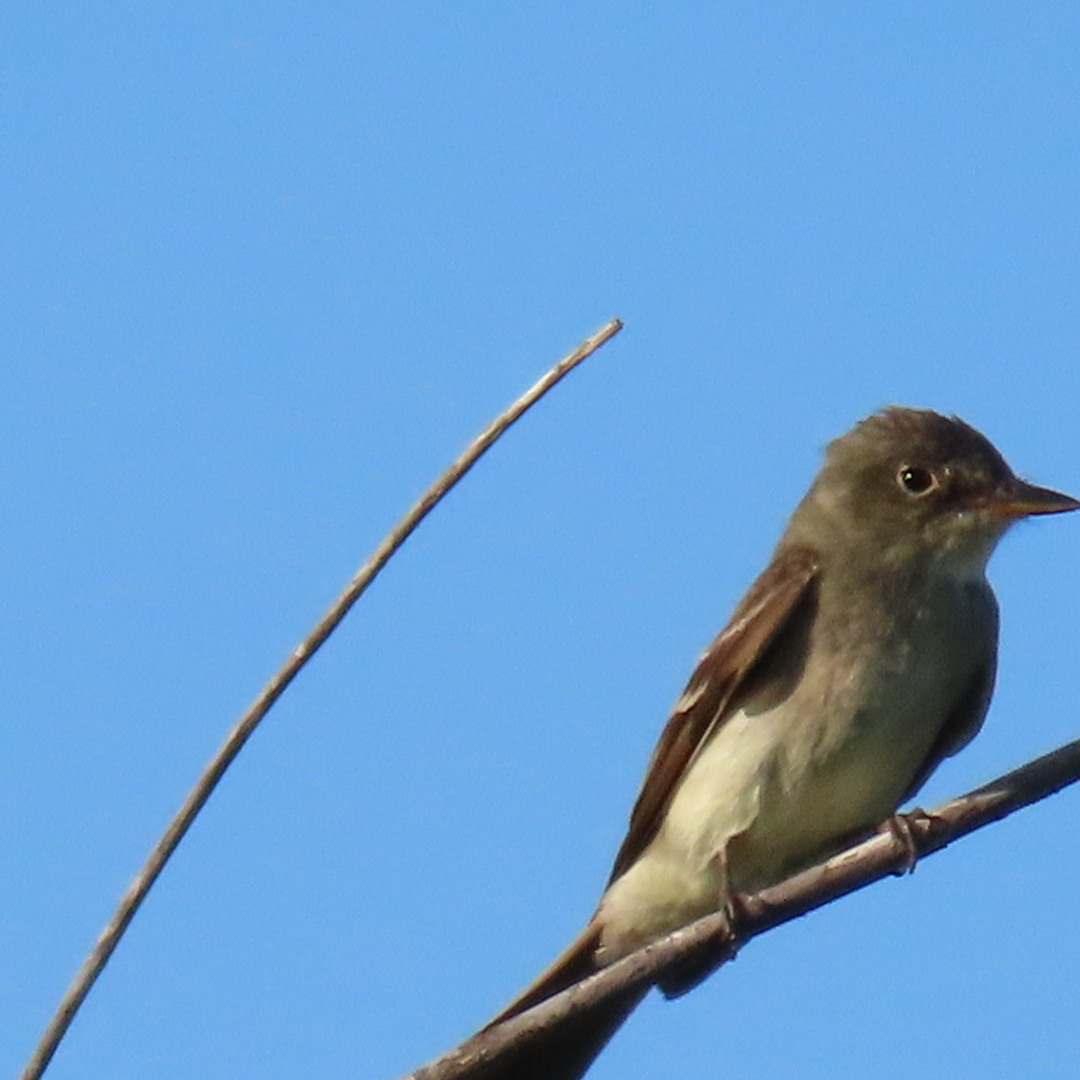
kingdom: Animalia
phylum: Chordata
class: Aves
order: Passeriformes
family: Tyrannidae
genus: Contopus
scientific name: Contopus virens
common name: Eastern wood-pewee
